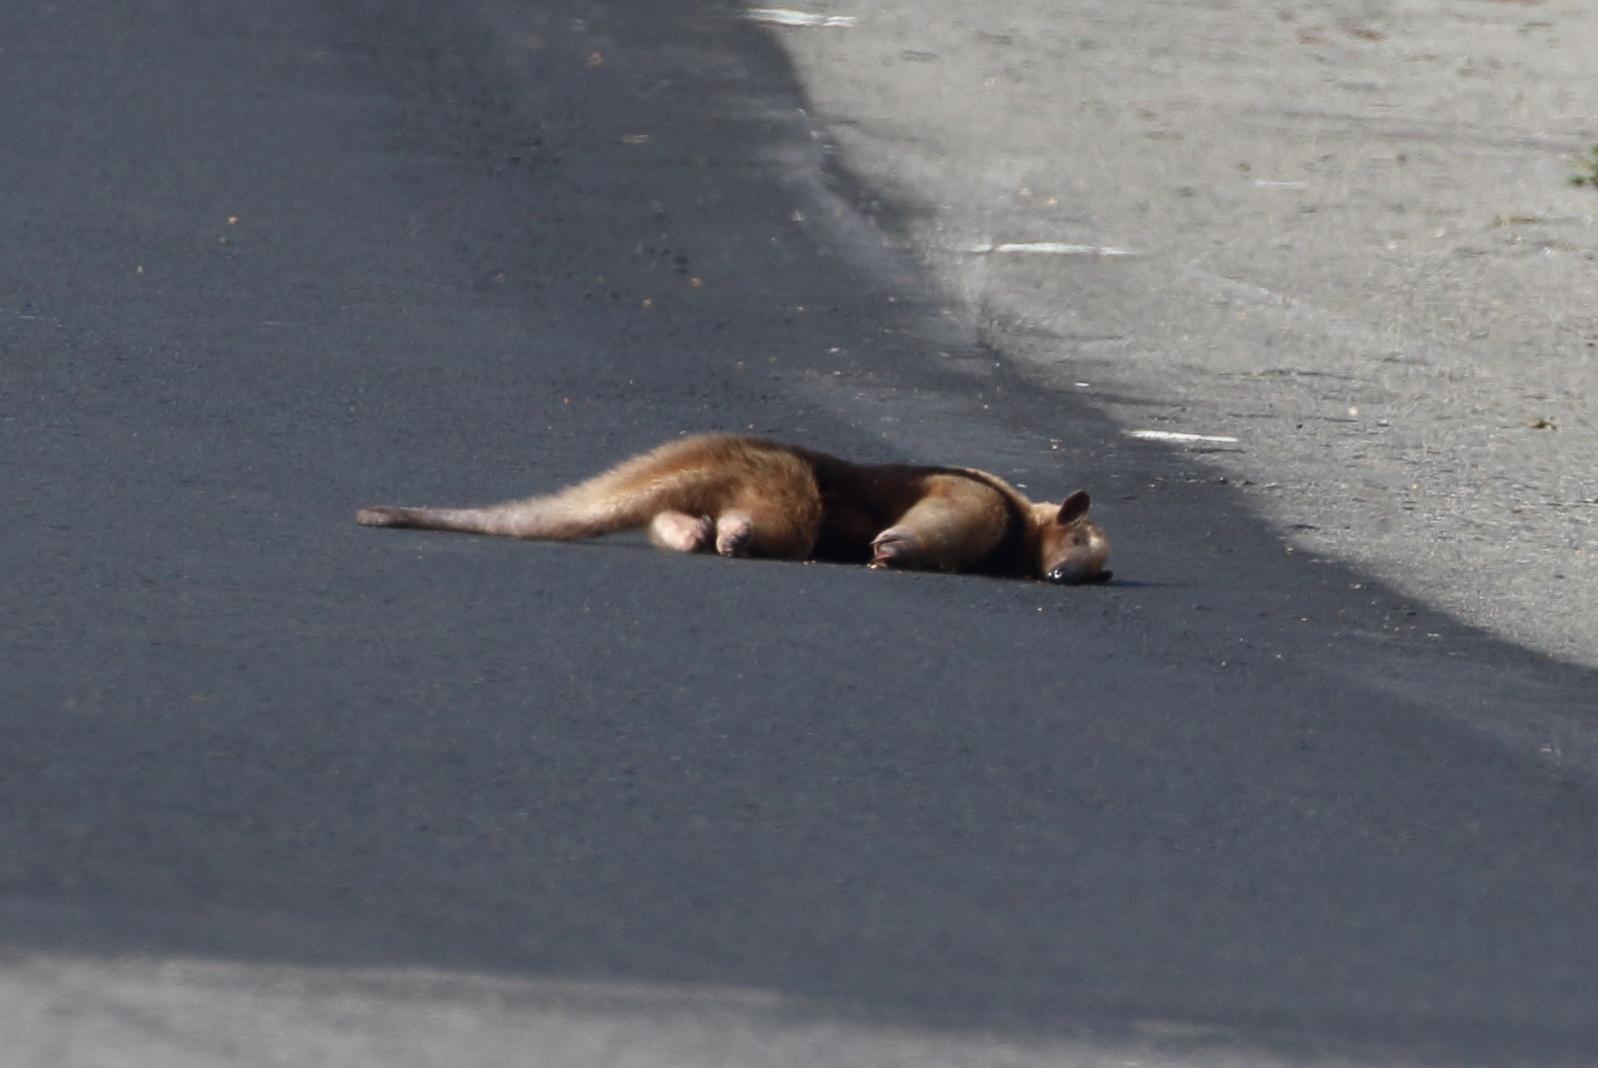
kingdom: Animalia
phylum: Chordata
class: Mammalia
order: Pilosa
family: Myrmecophagidae
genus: Tamandua
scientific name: Tamandua mexicana
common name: Northern tamandua
